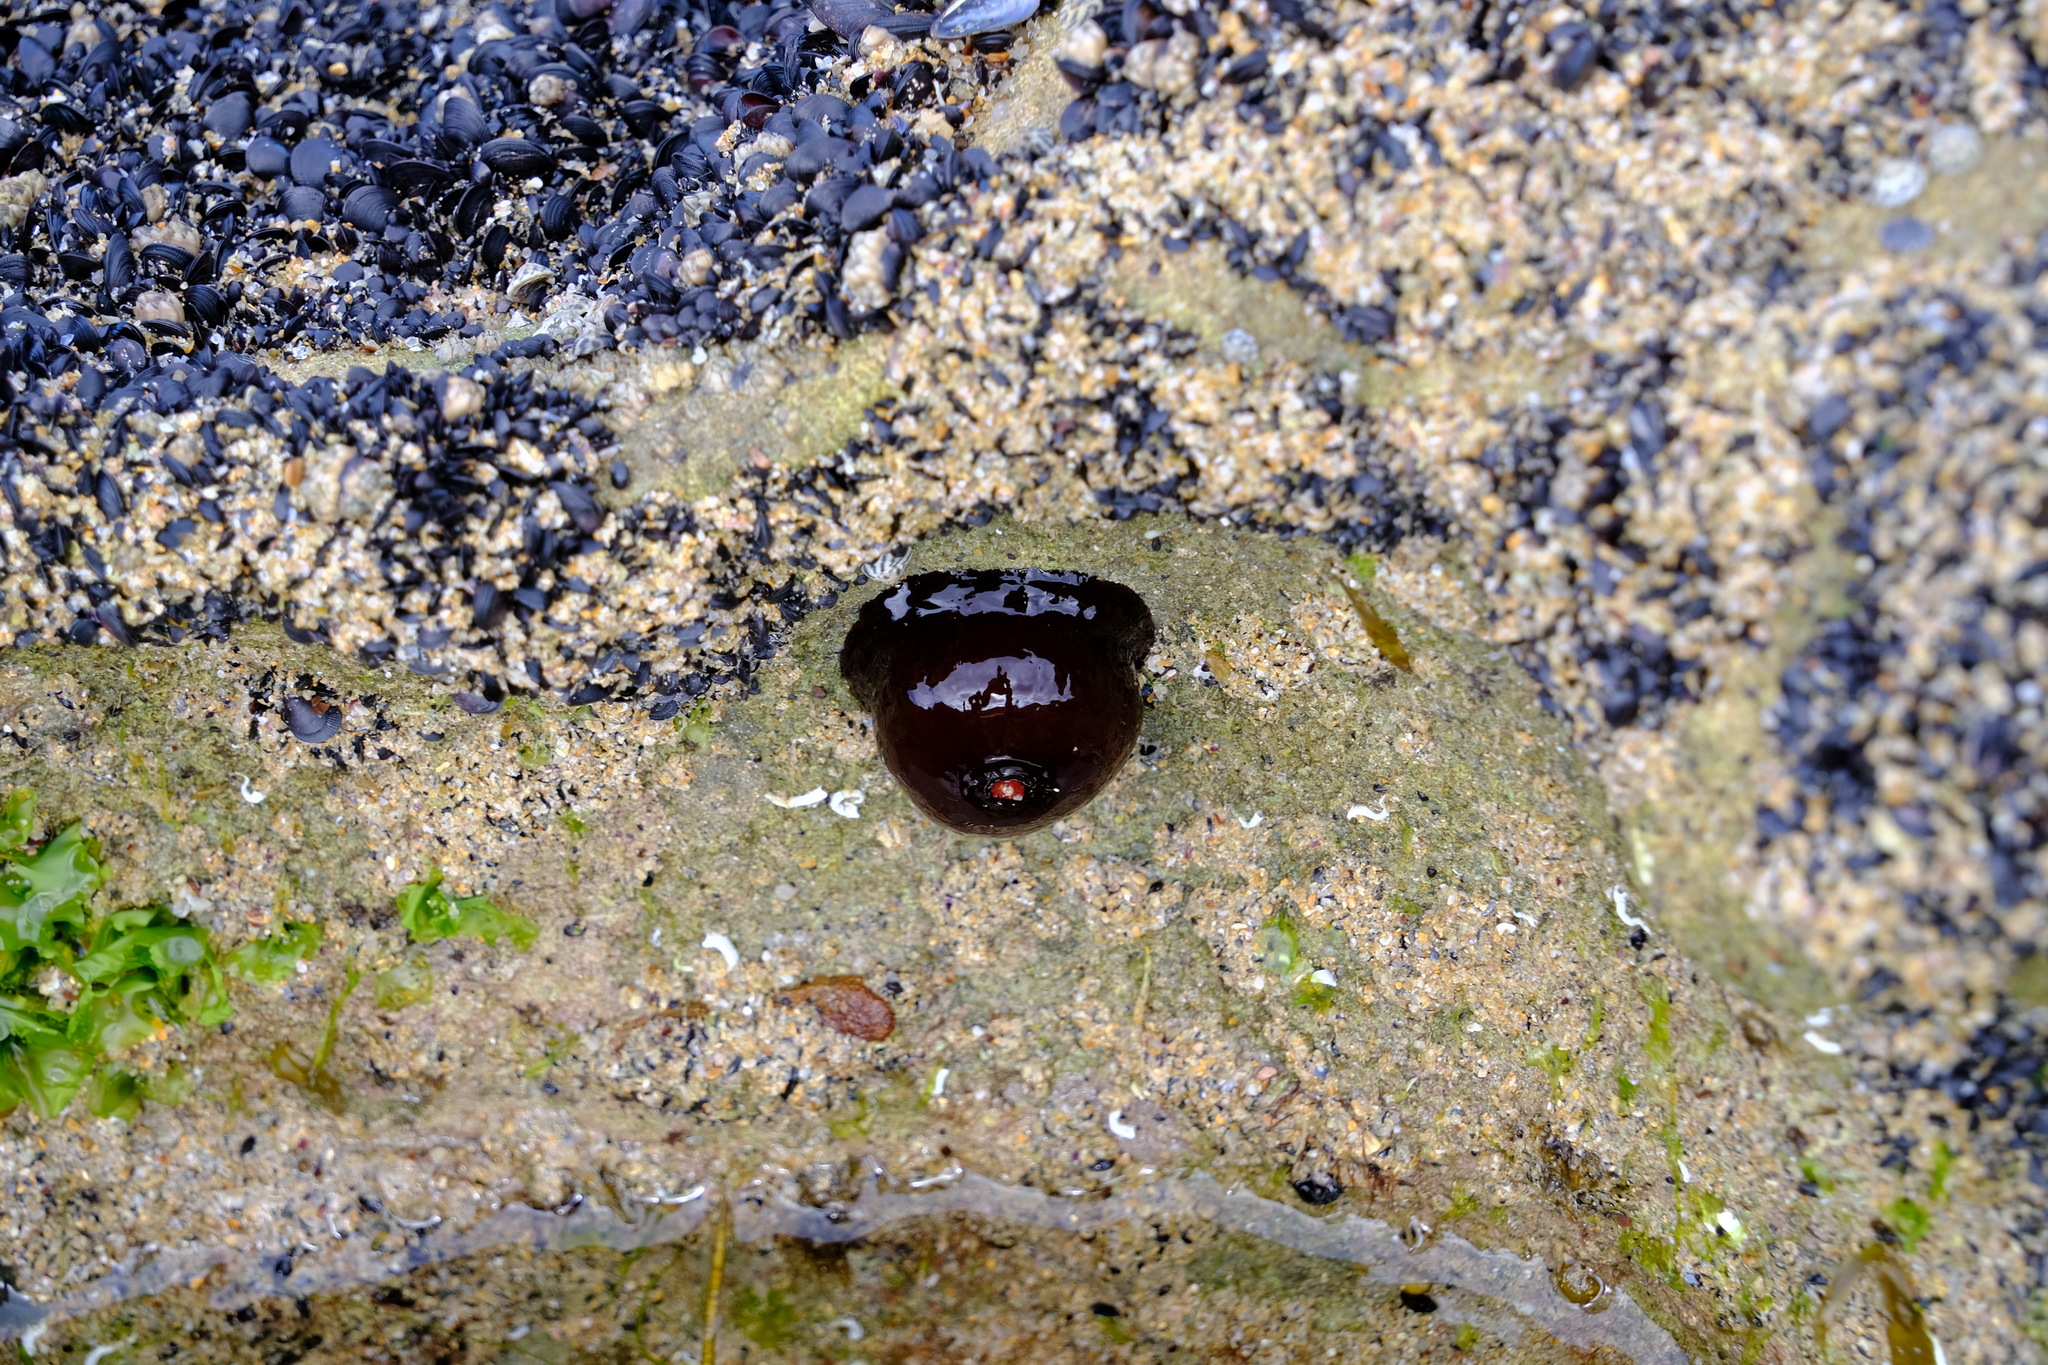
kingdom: Animalia
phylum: Cnidaria
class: Anthozoa
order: Actiniaria
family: Actiniidae
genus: Actinia
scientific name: Actinia tenebrosa
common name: Waratah anemone
